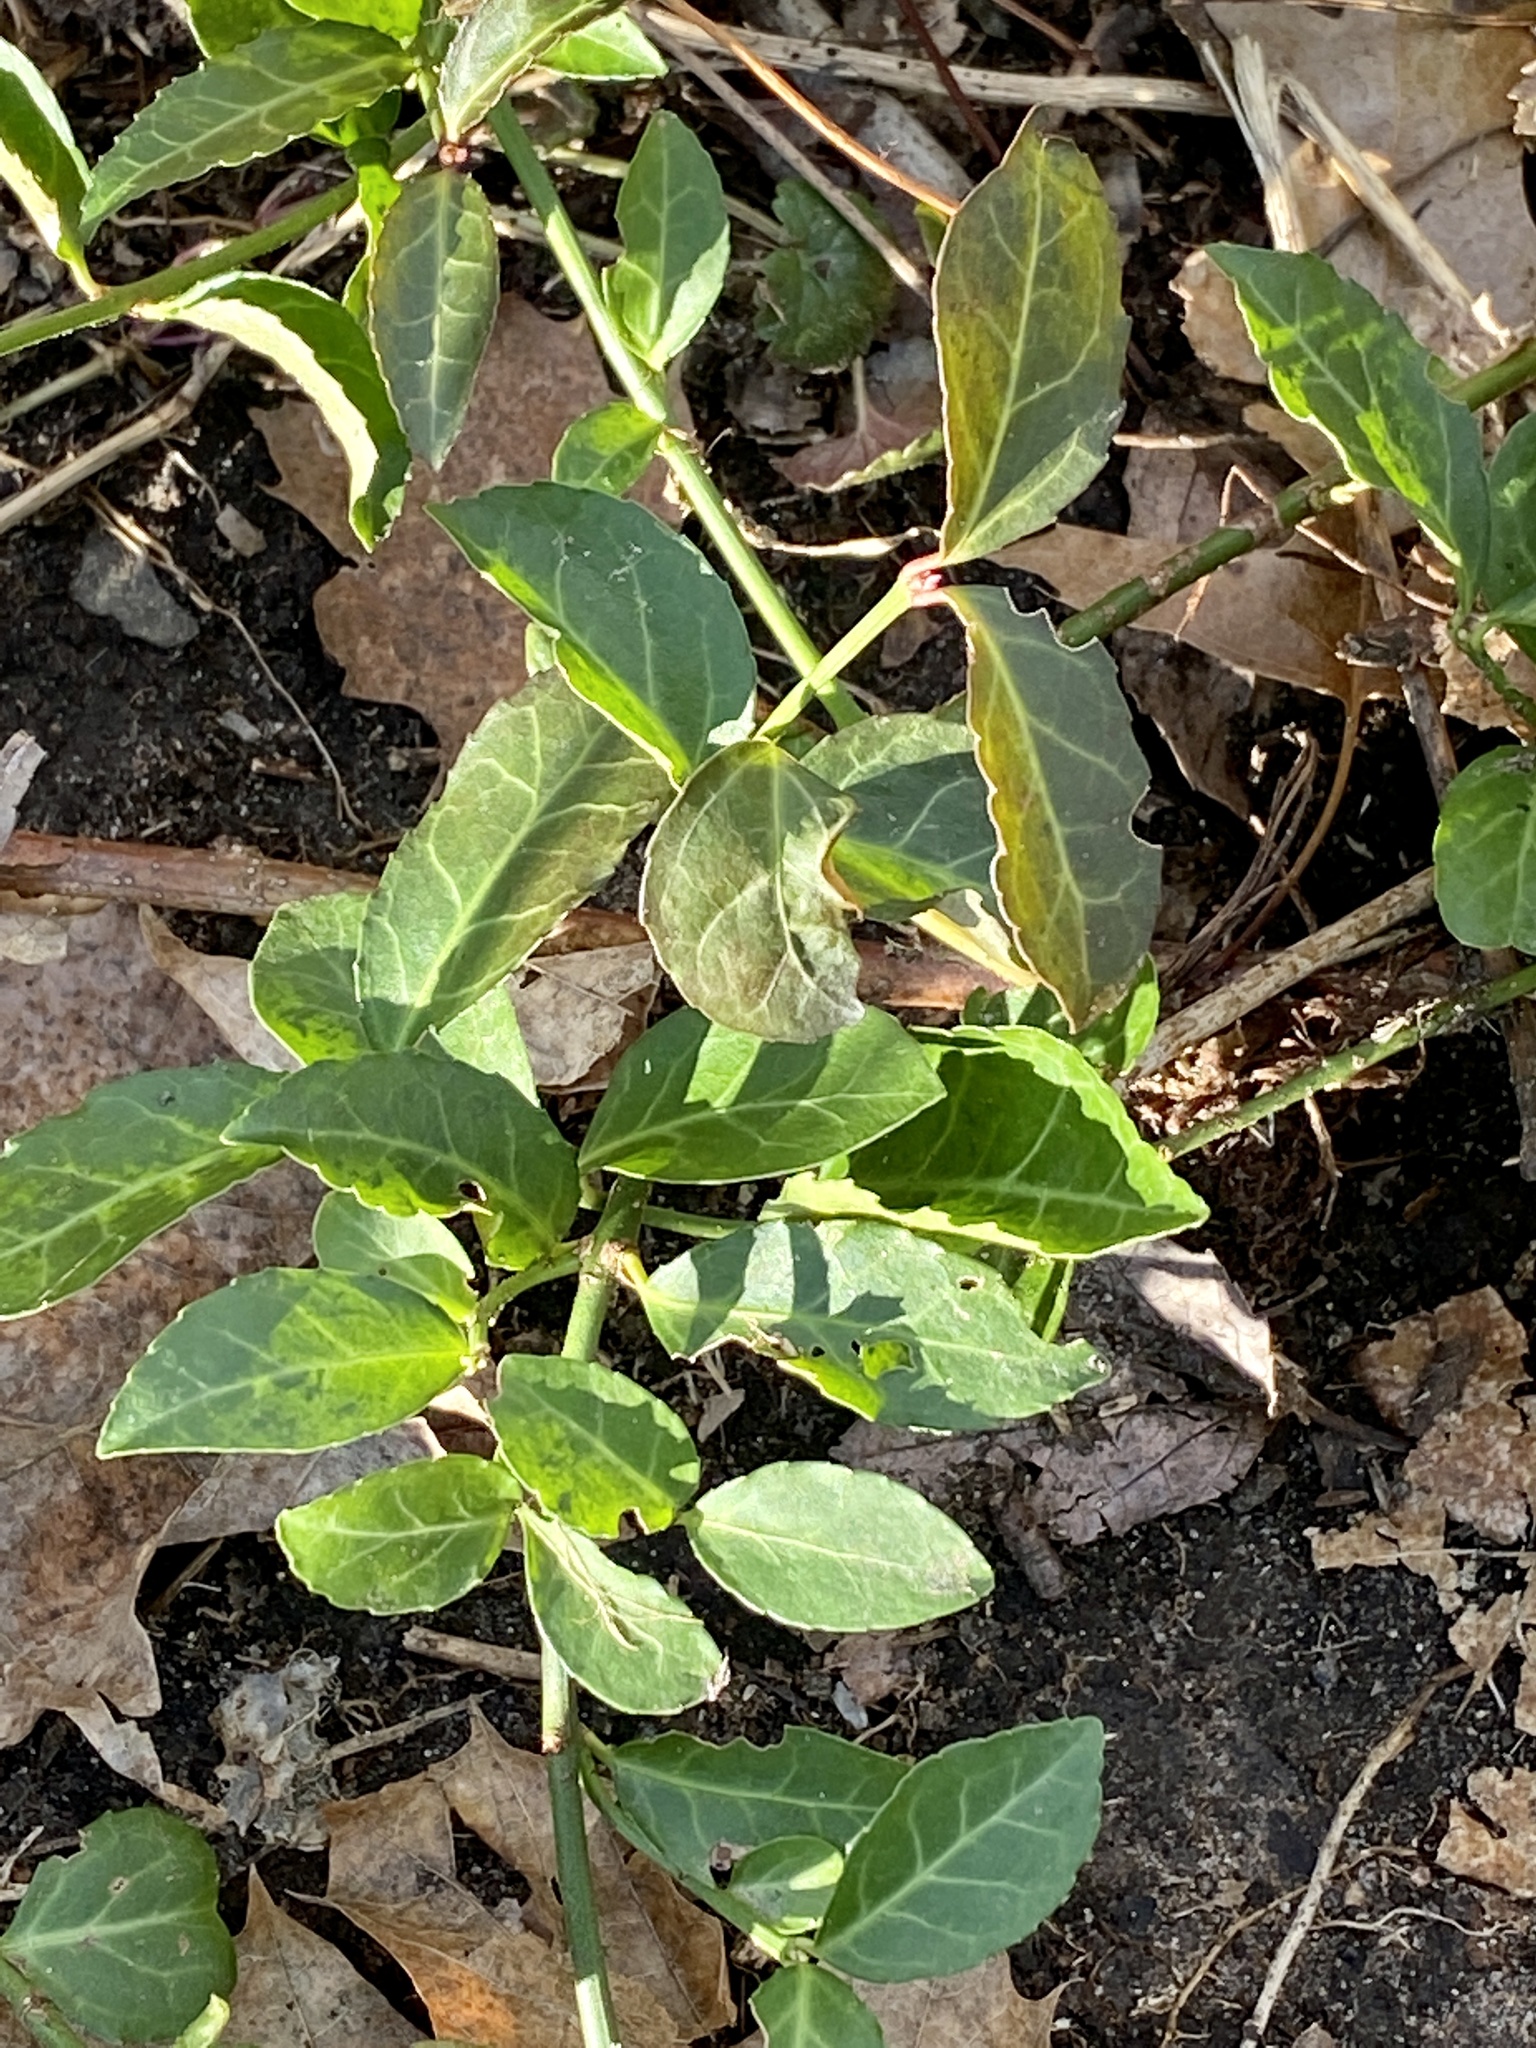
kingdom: Plantae
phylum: Tracheophyta
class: Magnoliopsida
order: Celastrales
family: Celastraceae
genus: Euonymus
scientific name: Euonymus fortunei
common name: Climbing euonymus
